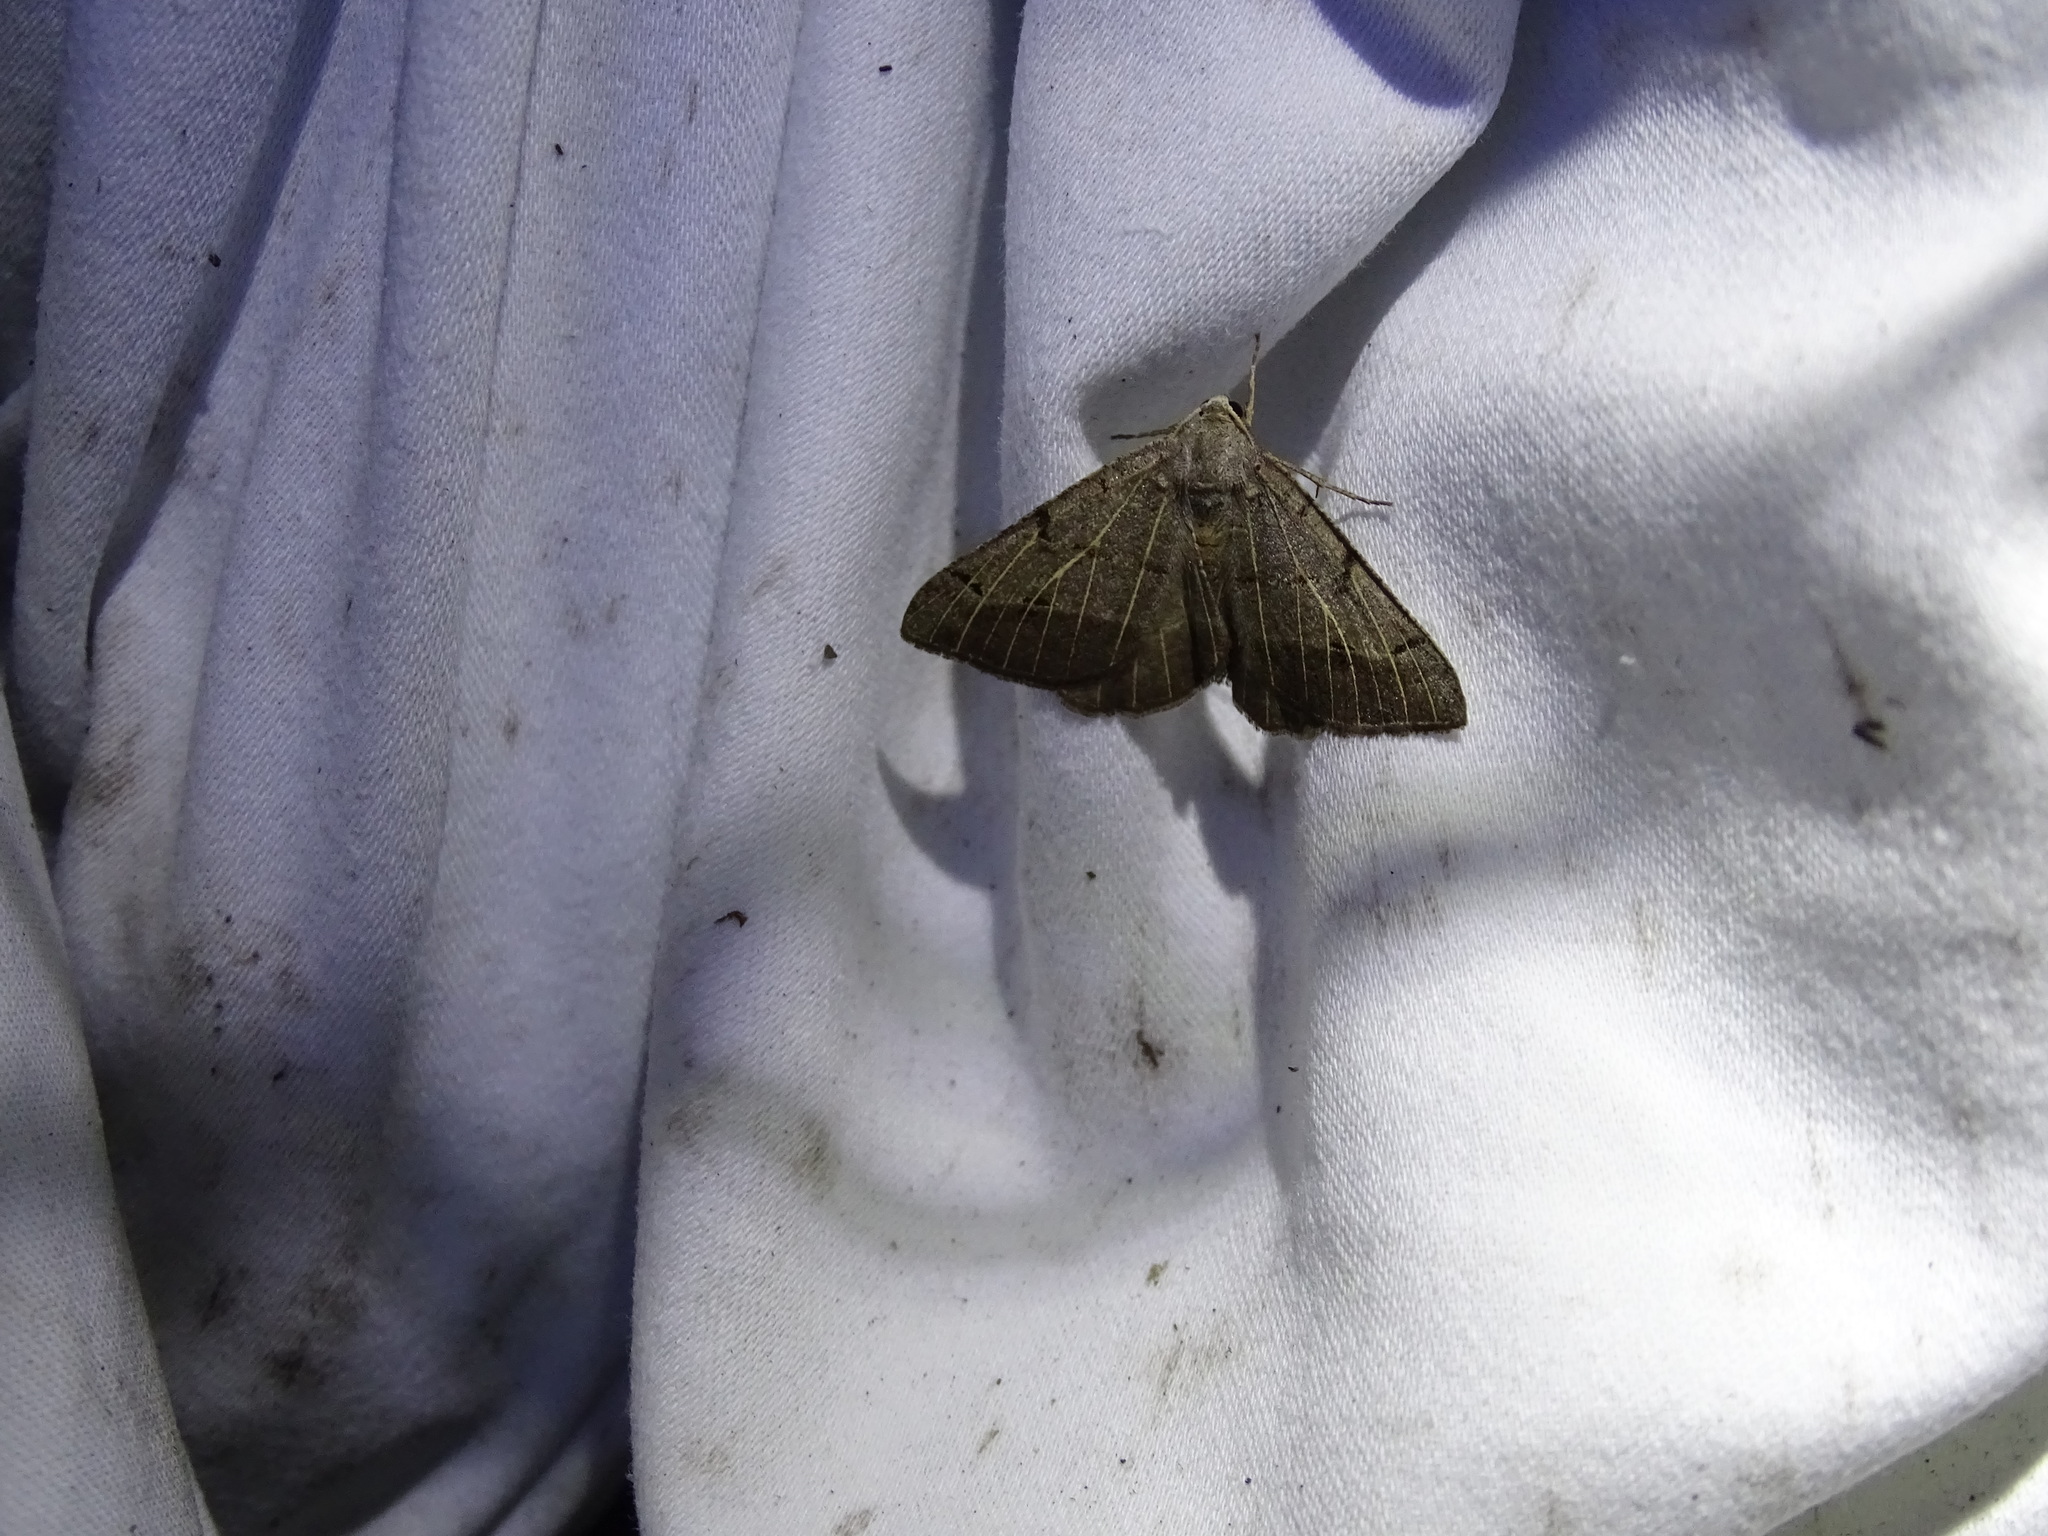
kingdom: Animalia
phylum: Arthropoda
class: Insecta
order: Lepidoptera
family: Geometridae
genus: Isturgia
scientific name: Isturgia dislocaria
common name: Pale-viened enconista
